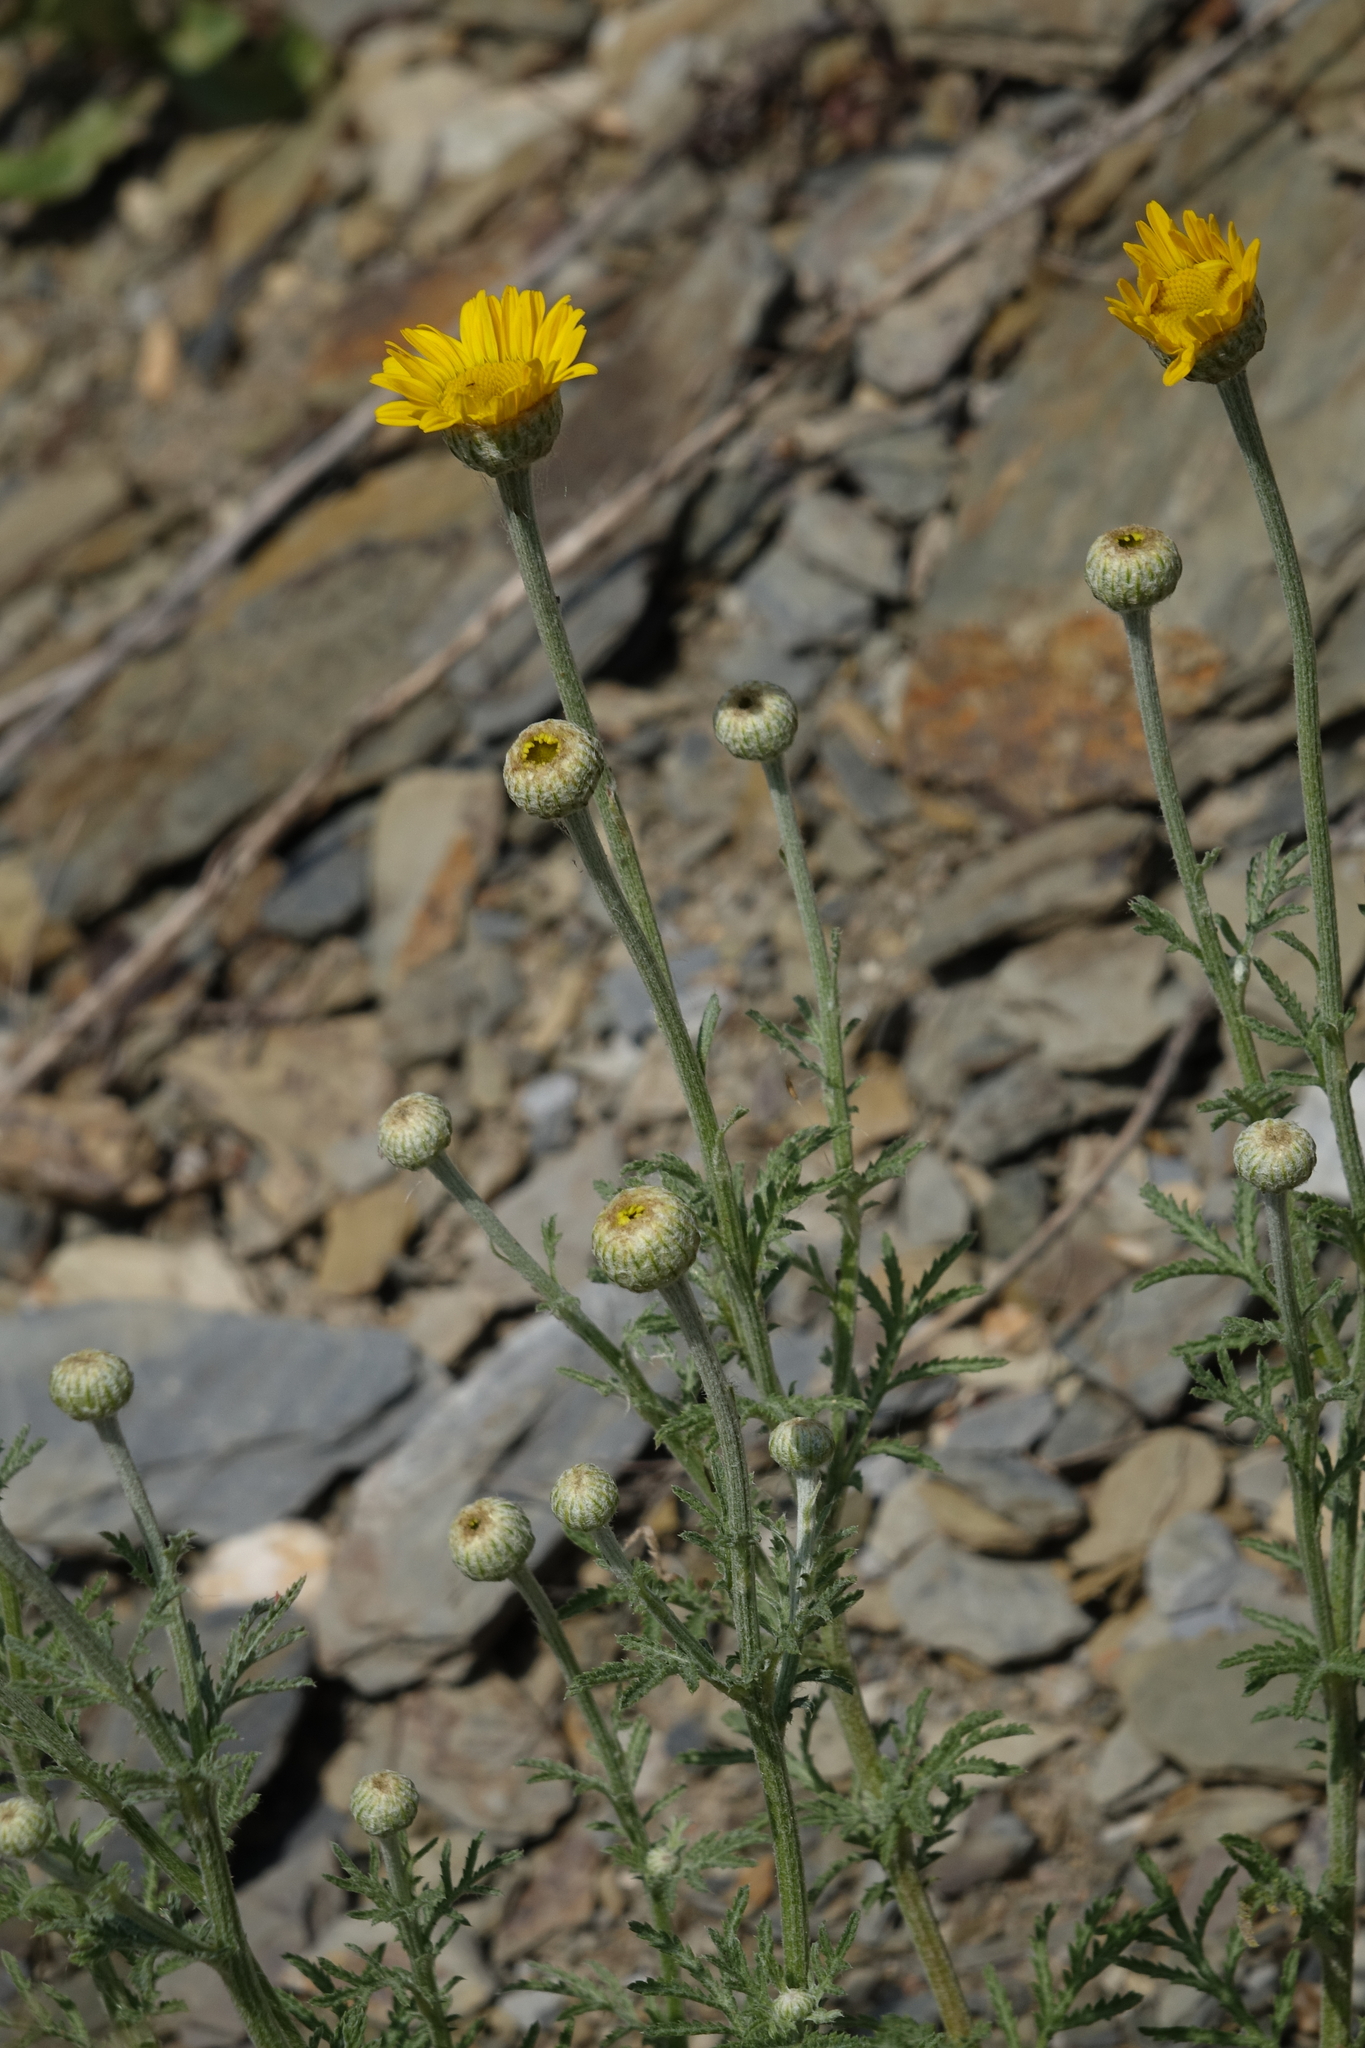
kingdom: Plantae
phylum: Tracheophyta
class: Magnoliopsida
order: Asterales
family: Asteraceae
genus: Cota
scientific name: Cota tinctoria
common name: Golden chamomile
